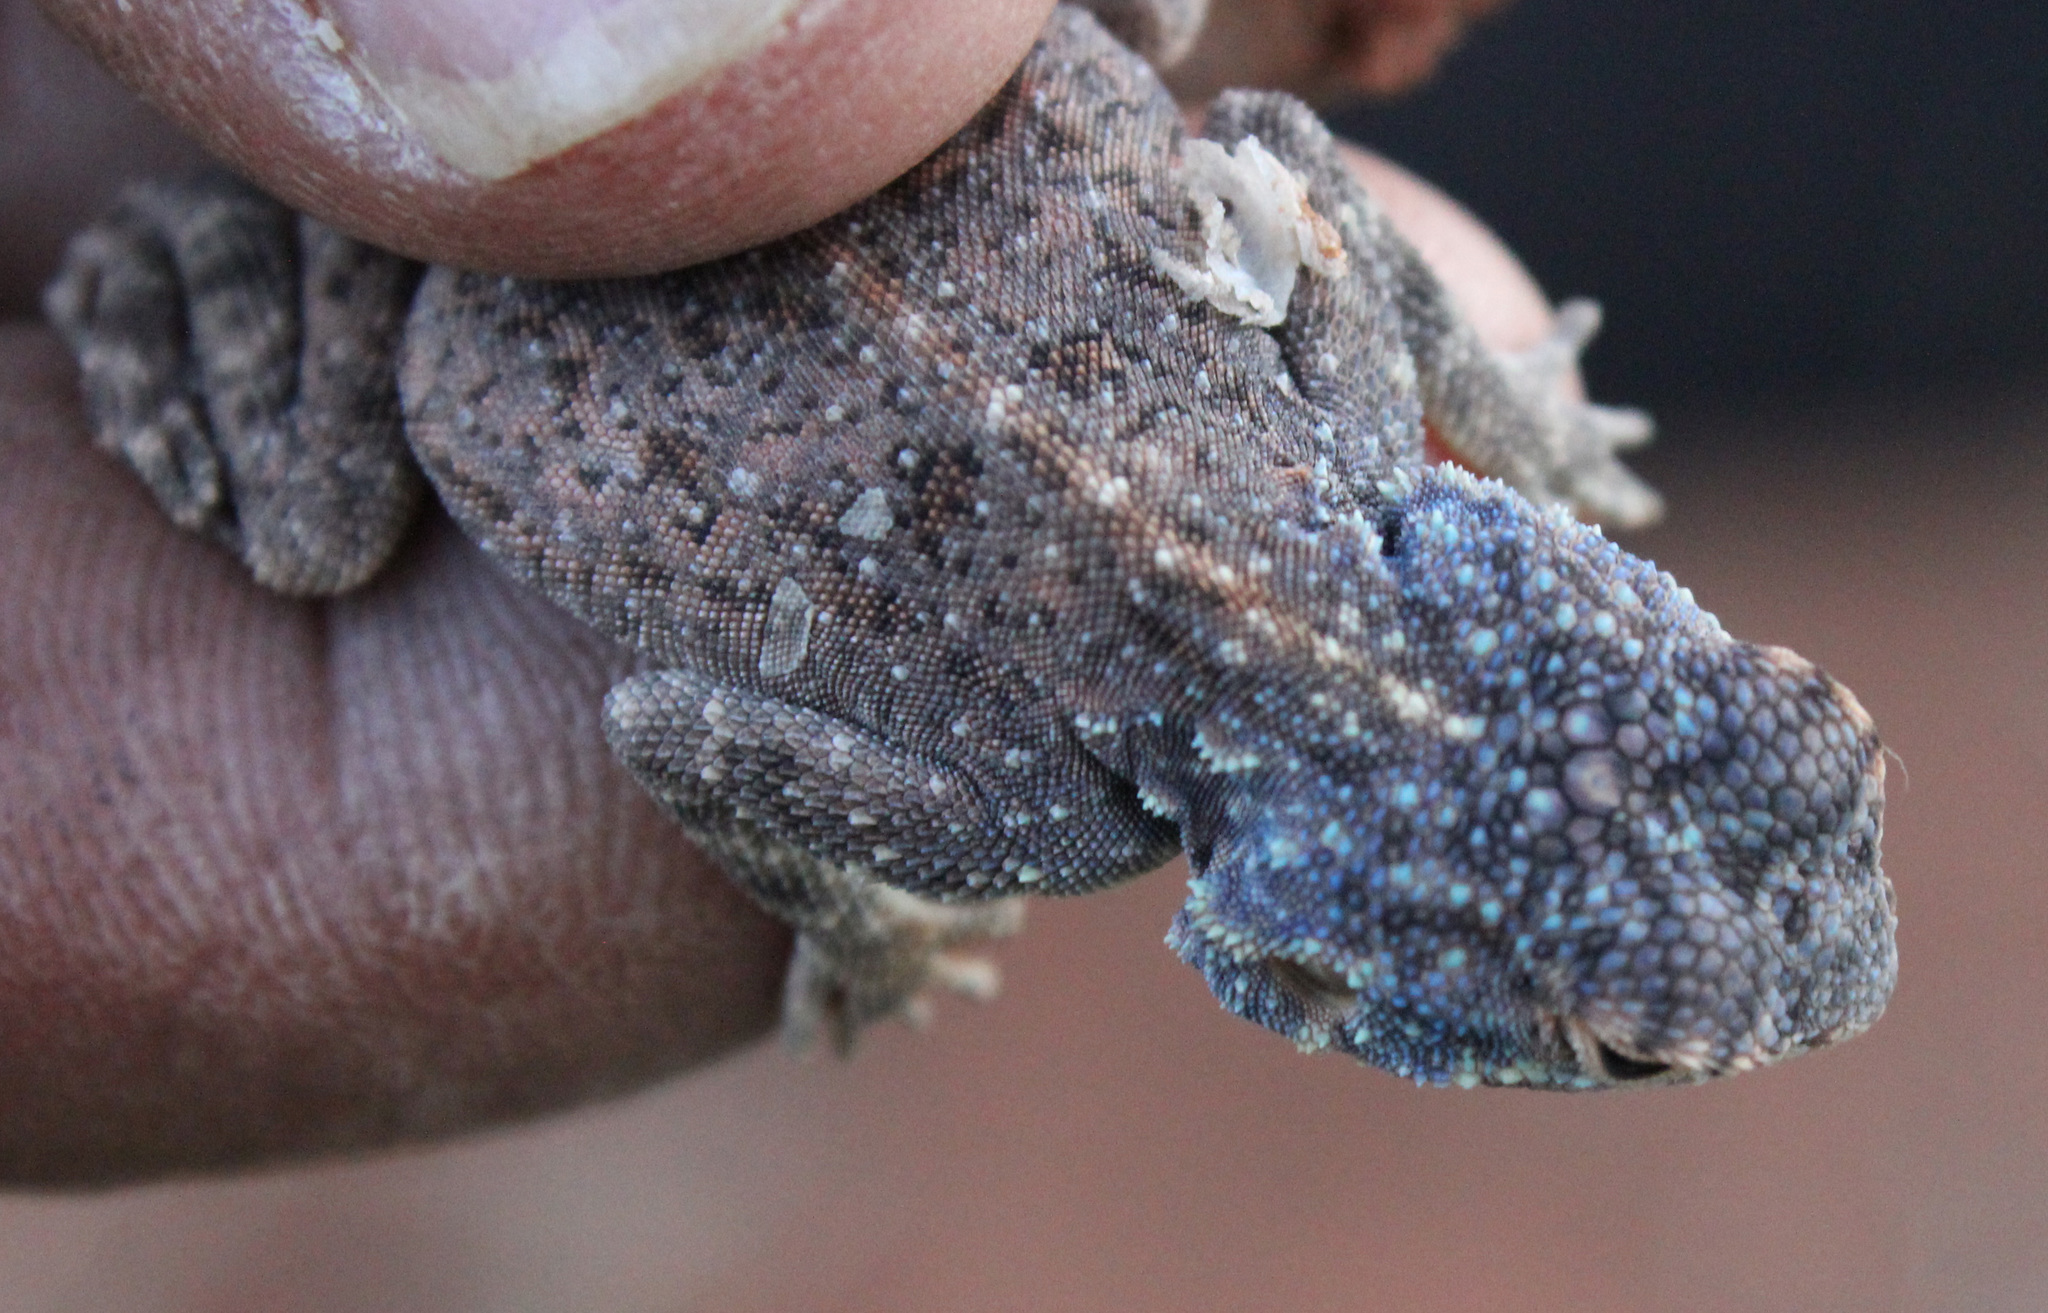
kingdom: Animalia
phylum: Chordata
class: Squamata
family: Agamidae
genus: Agama
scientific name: Agama atra
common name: Southern african rock agama
